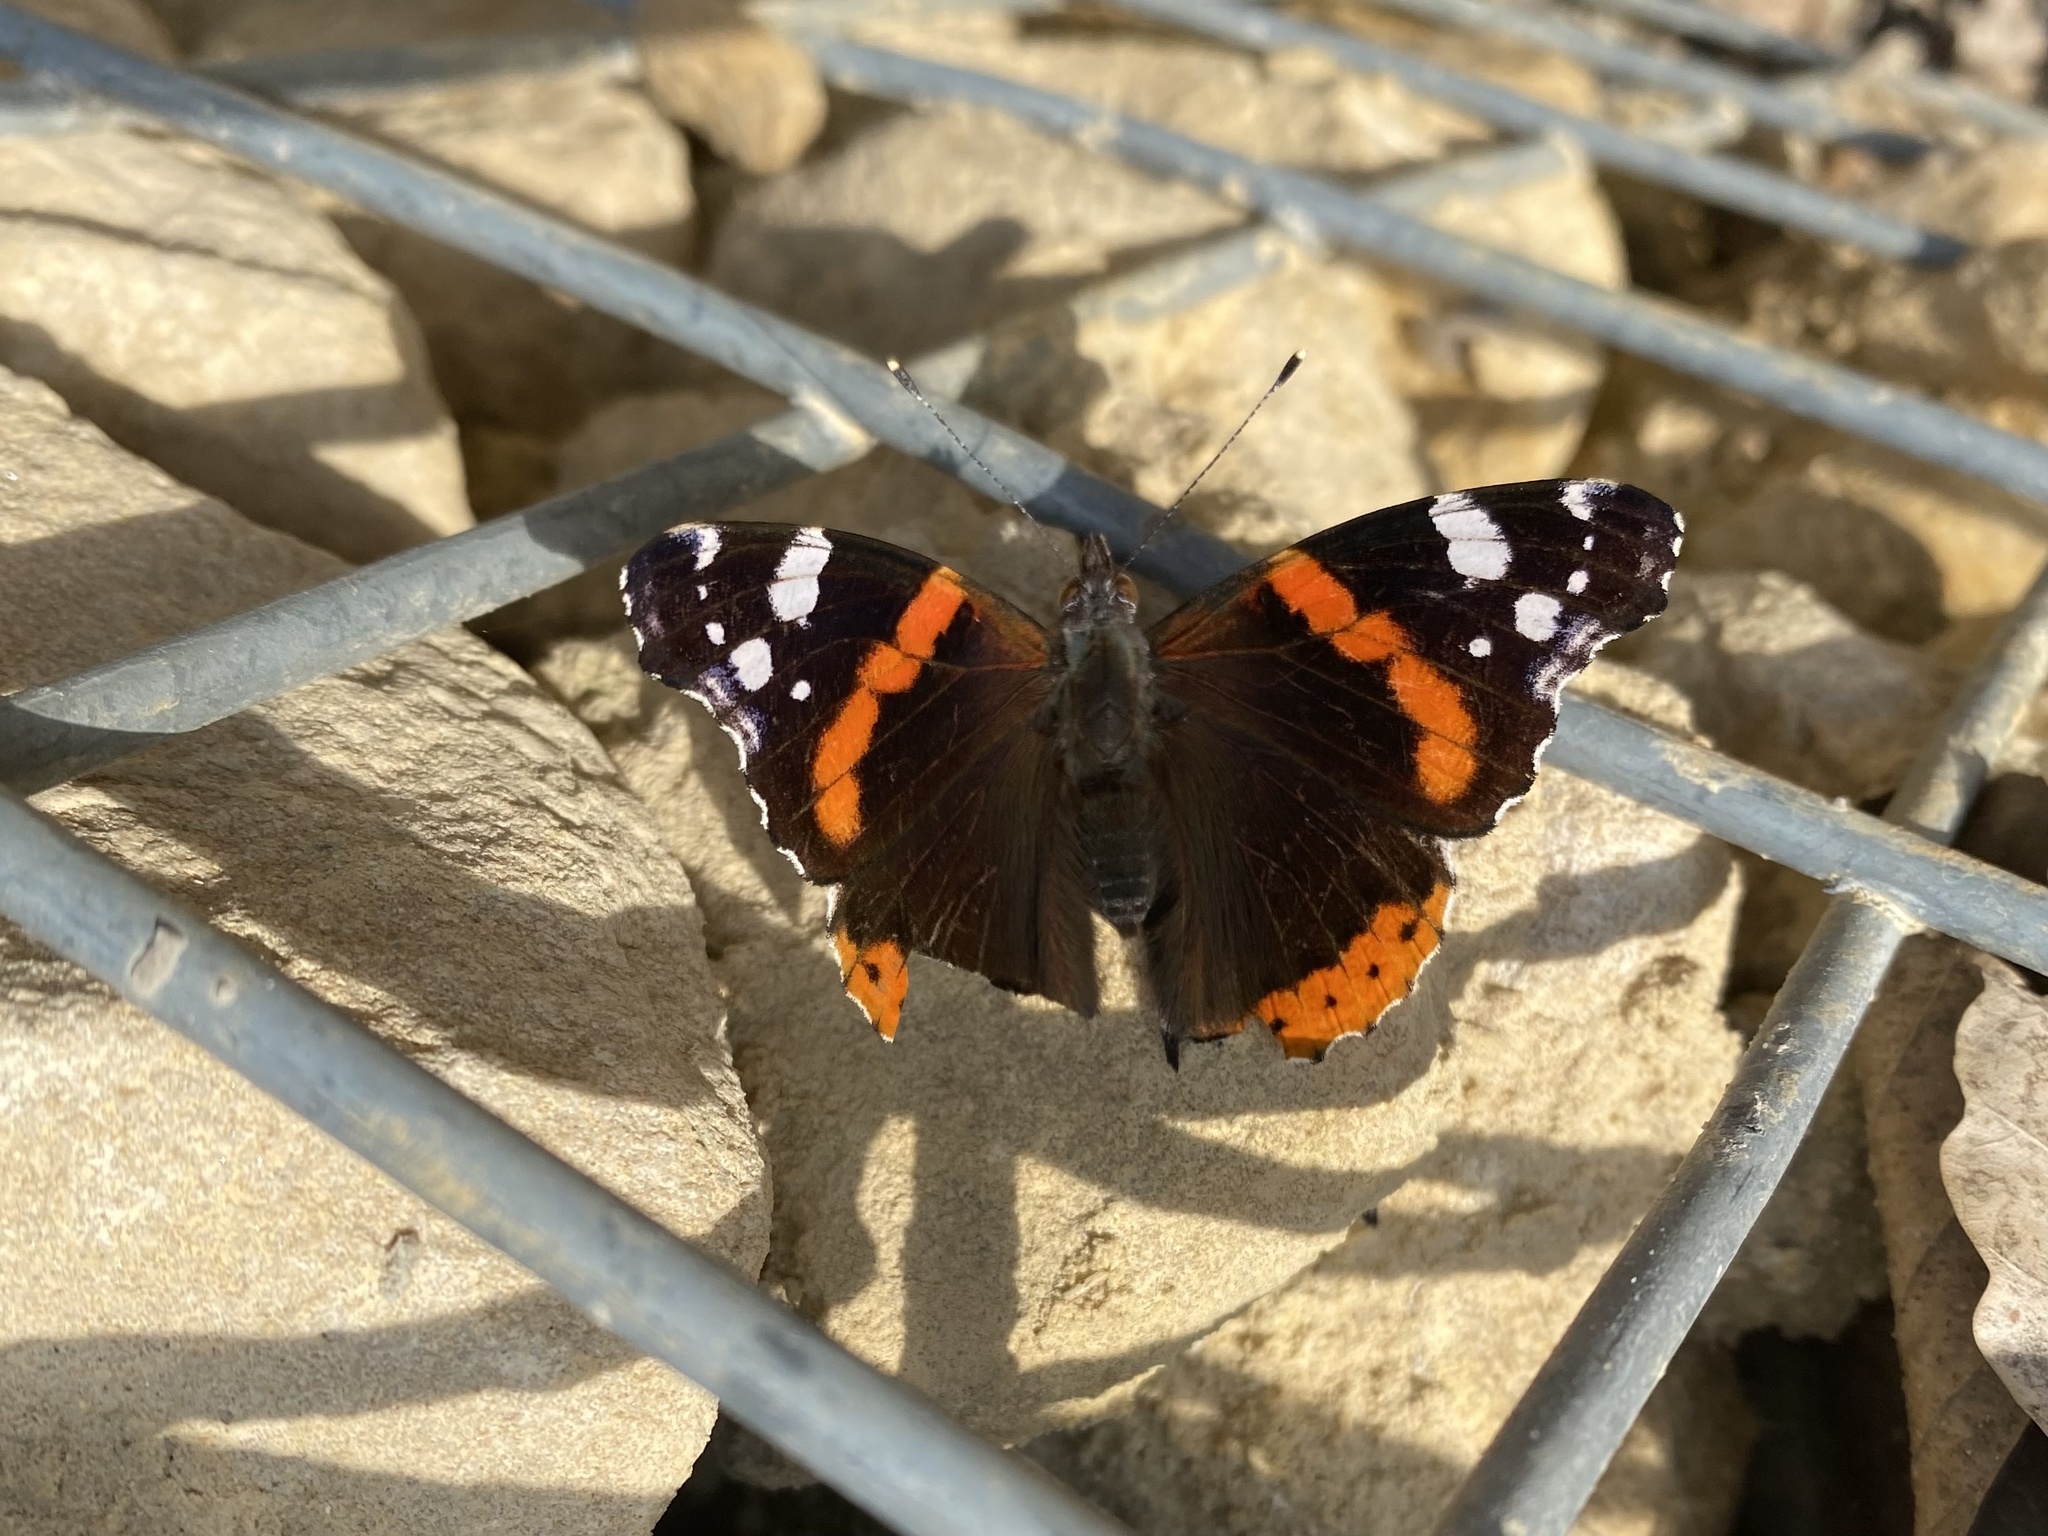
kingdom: Animalia
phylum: Arthropoda
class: Insecta
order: Lepidoptera
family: Nymphalidae
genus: Vanessa
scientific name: Vanessa atalanta
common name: Red admiral
